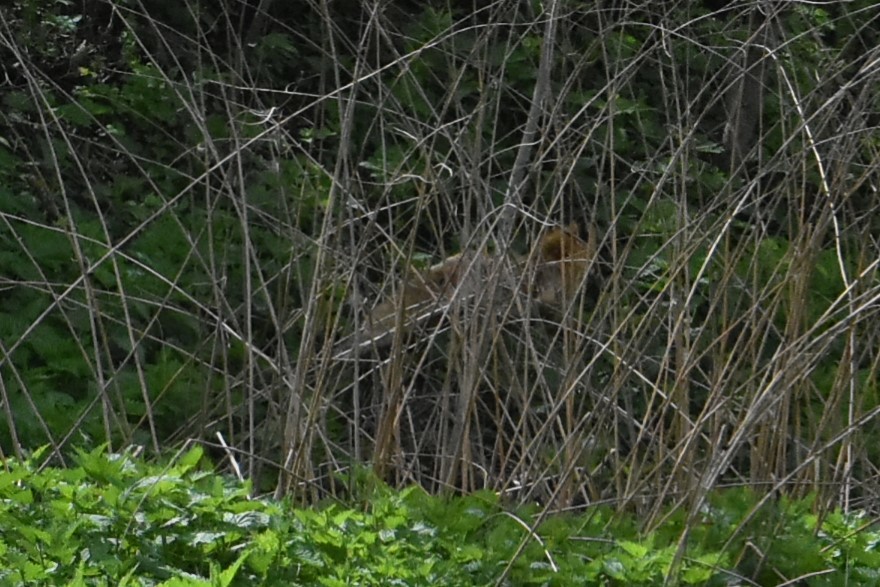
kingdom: Animalia
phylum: Chordata
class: Mammalia
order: Carnivora
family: Canidae
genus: Vulpes
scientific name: Vulpes vulpes
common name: Red fox
